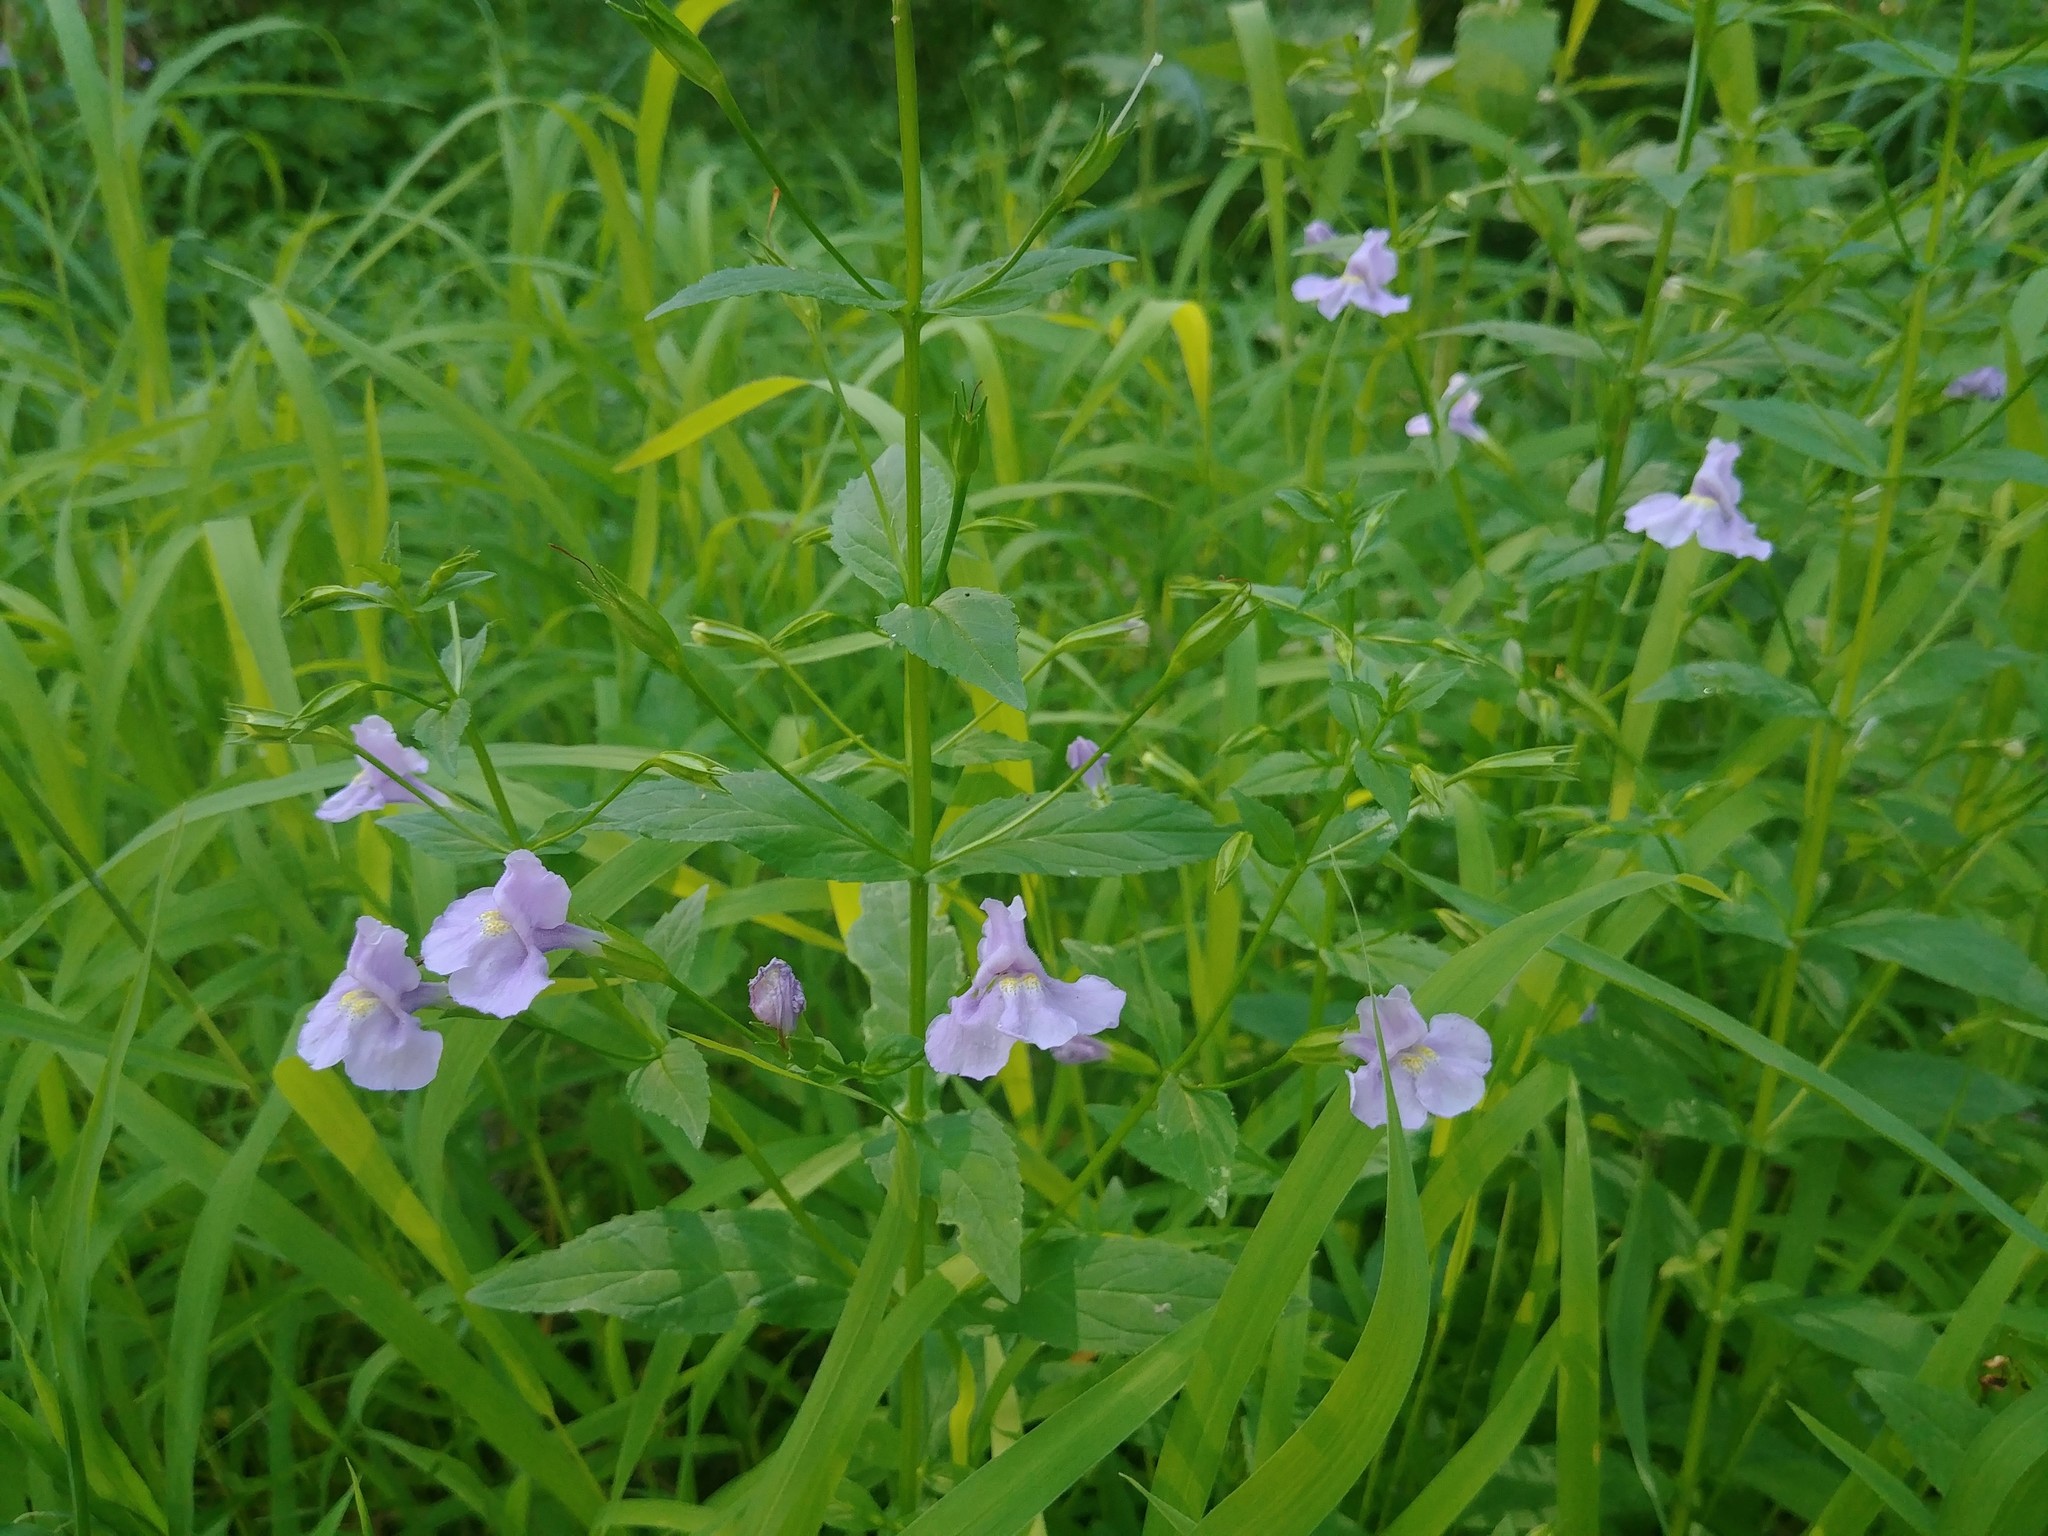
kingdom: Plantae
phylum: Tracheophyta
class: Magnoliopsida
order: Lamiales
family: Phrymaceae
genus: Mimulus
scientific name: Mimulus ringens
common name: Allegheny monkeyflower
